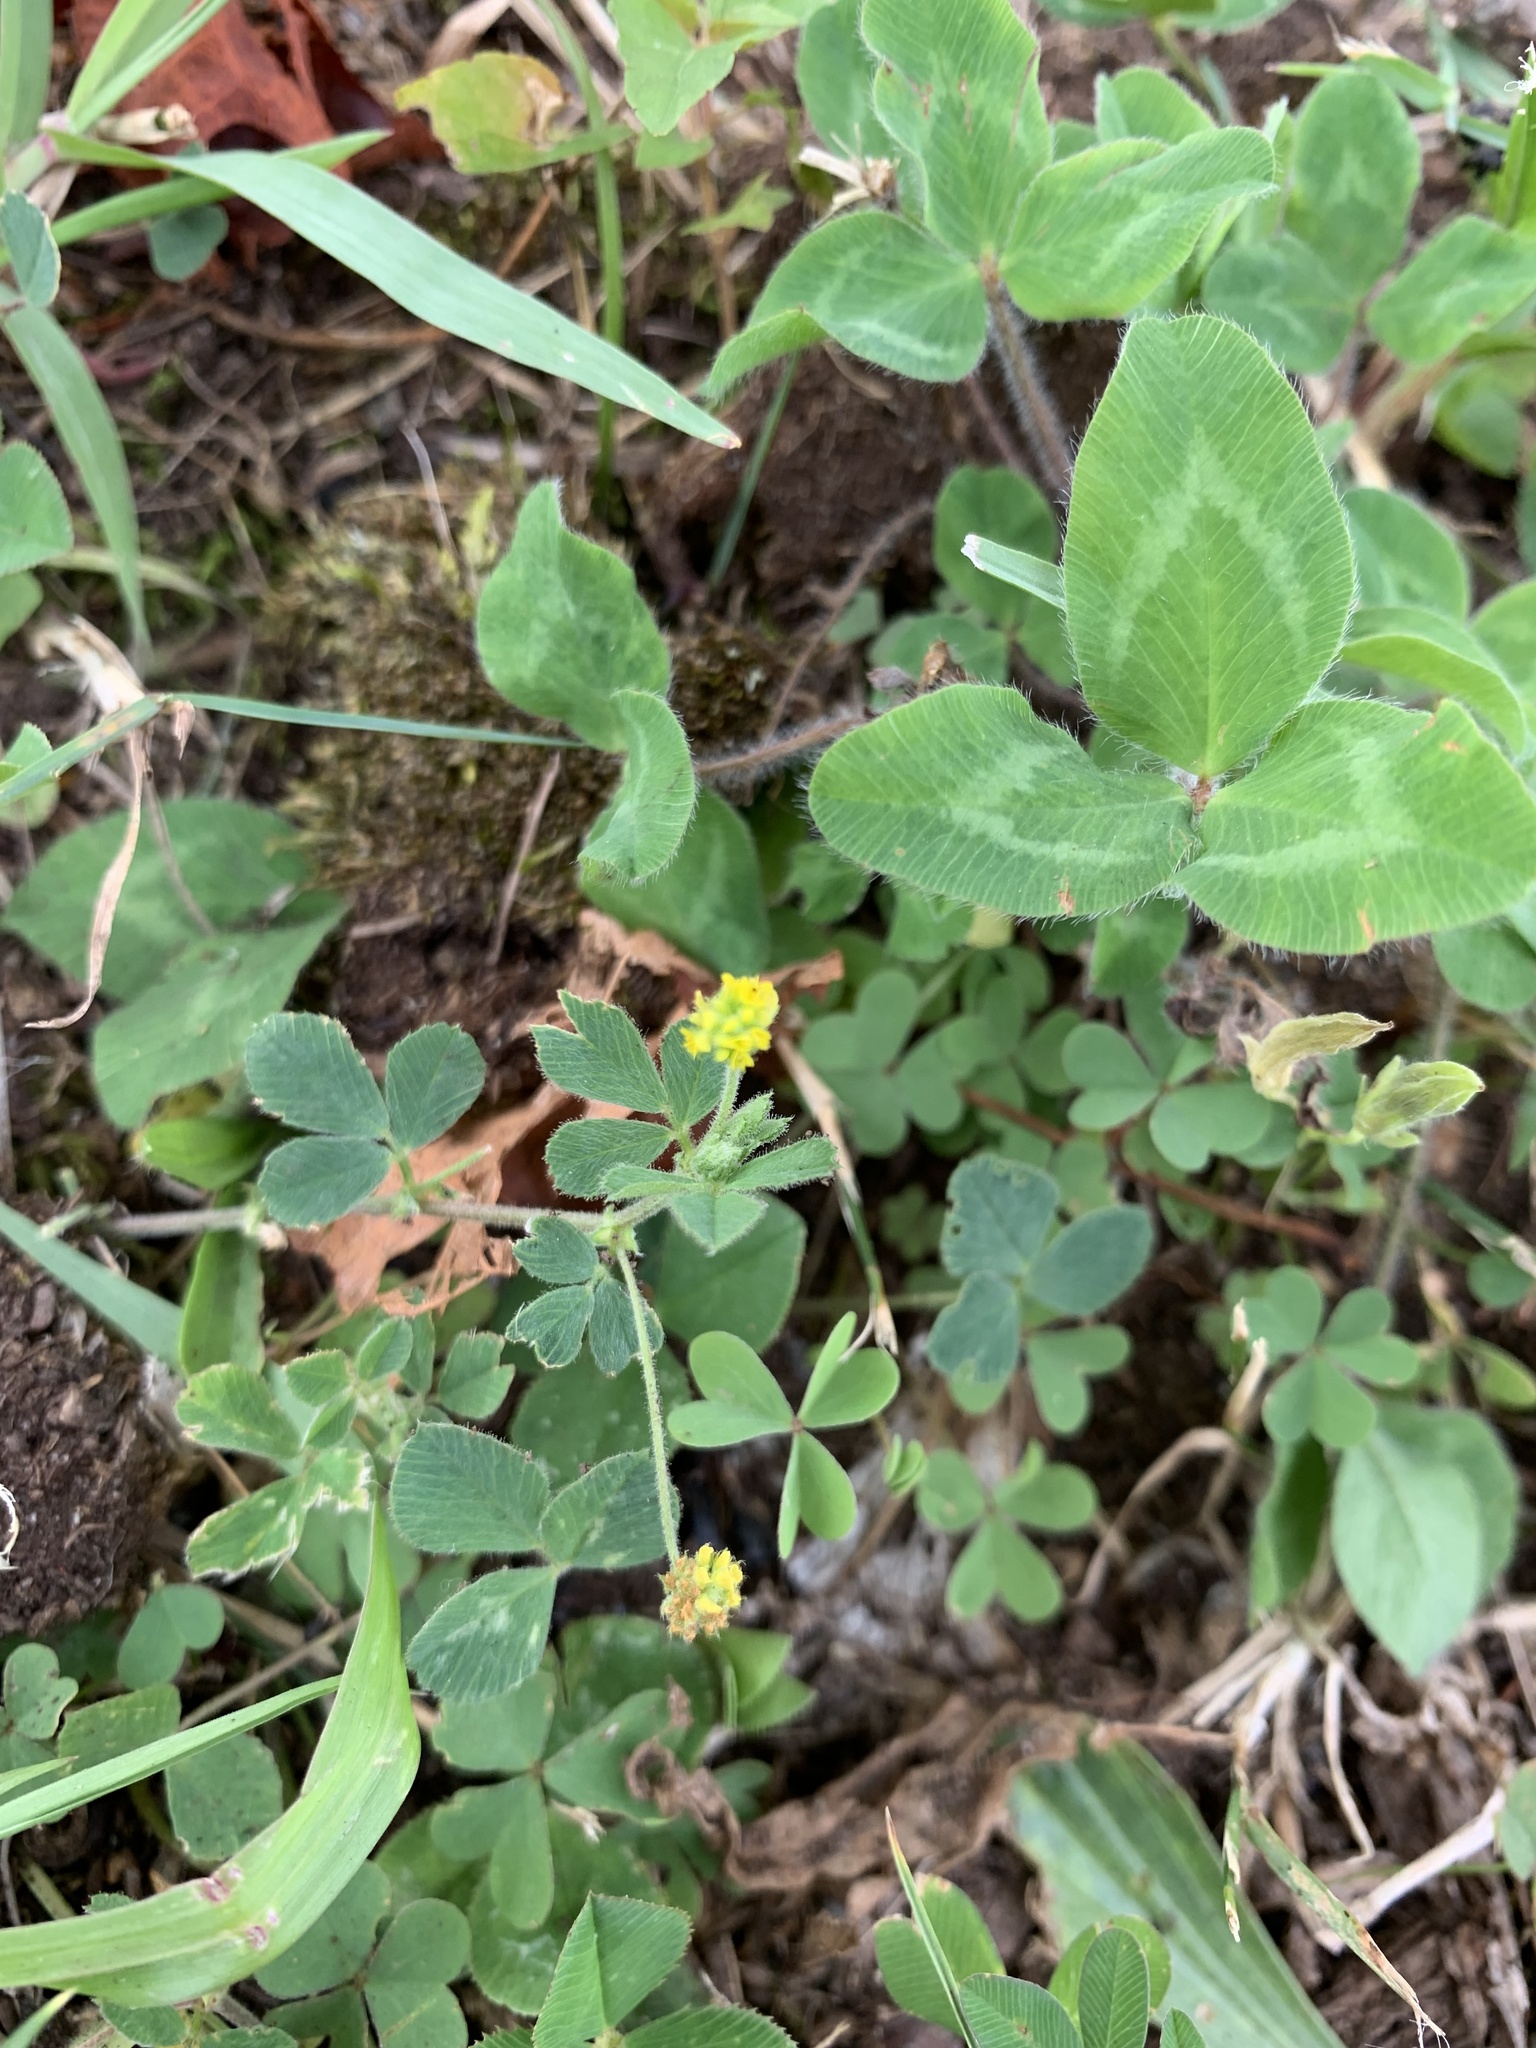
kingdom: Plantae
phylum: Tracheophyta
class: Magnoliopsida
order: Fabales
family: Fabaceae
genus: Medicago
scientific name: Medicago lupulina
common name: Black medick
